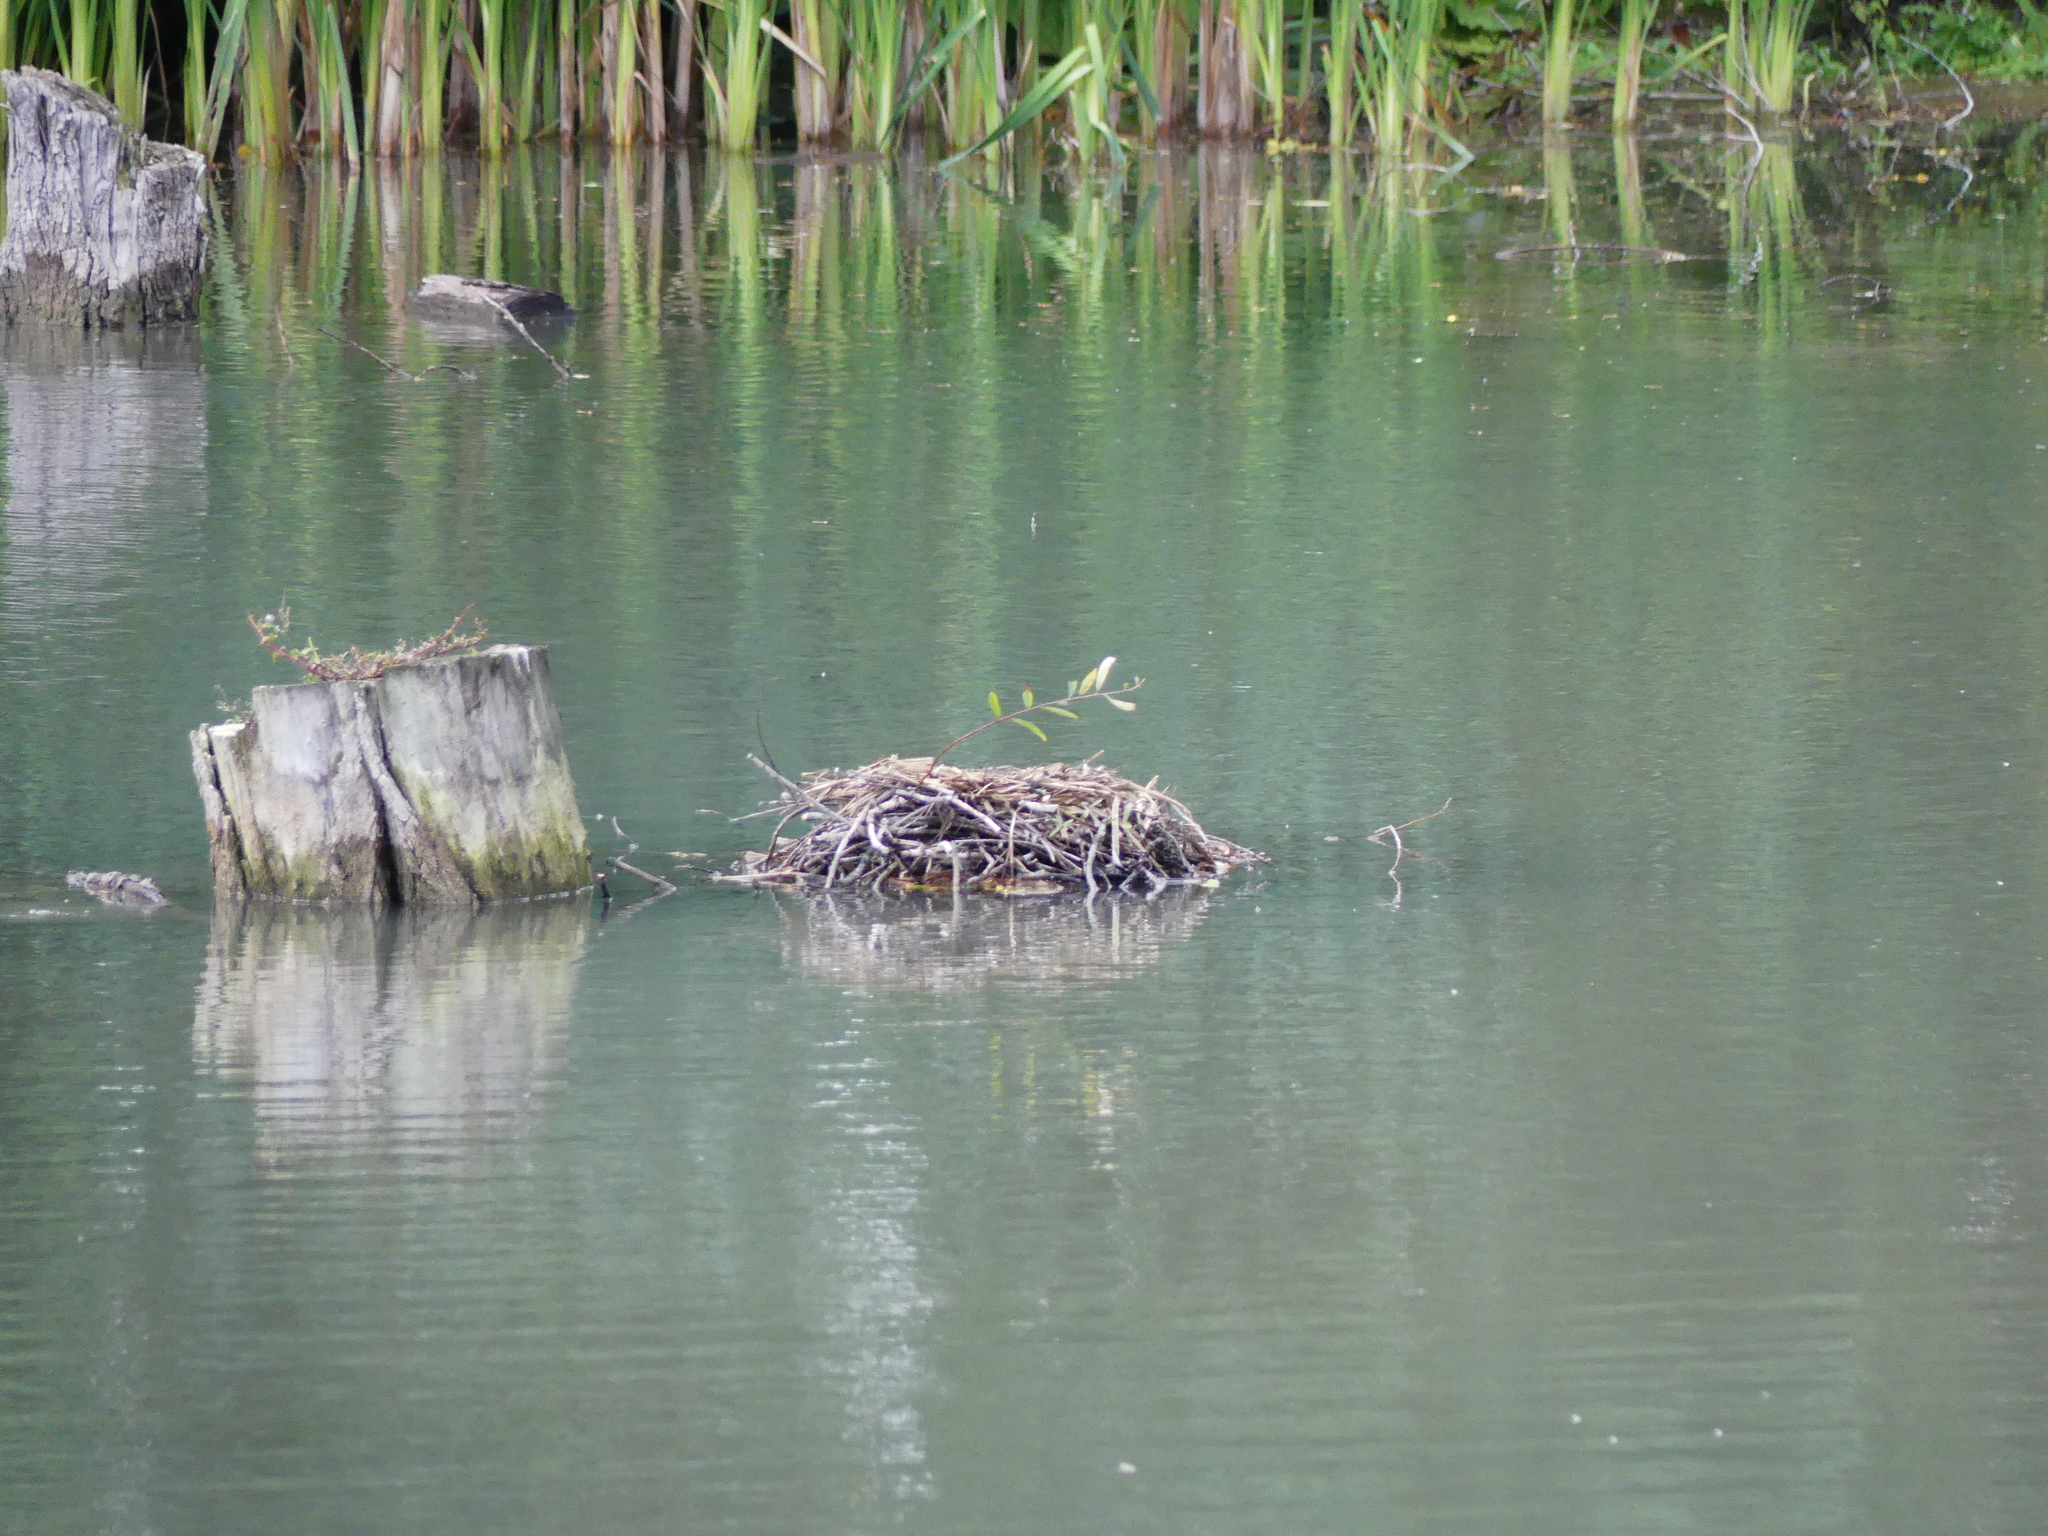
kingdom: Animalia
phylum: Chordata
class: Aves
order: Gruiformes
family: Rallidae
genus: Fulica
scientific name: Fulica atra
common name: Eurasian coot
